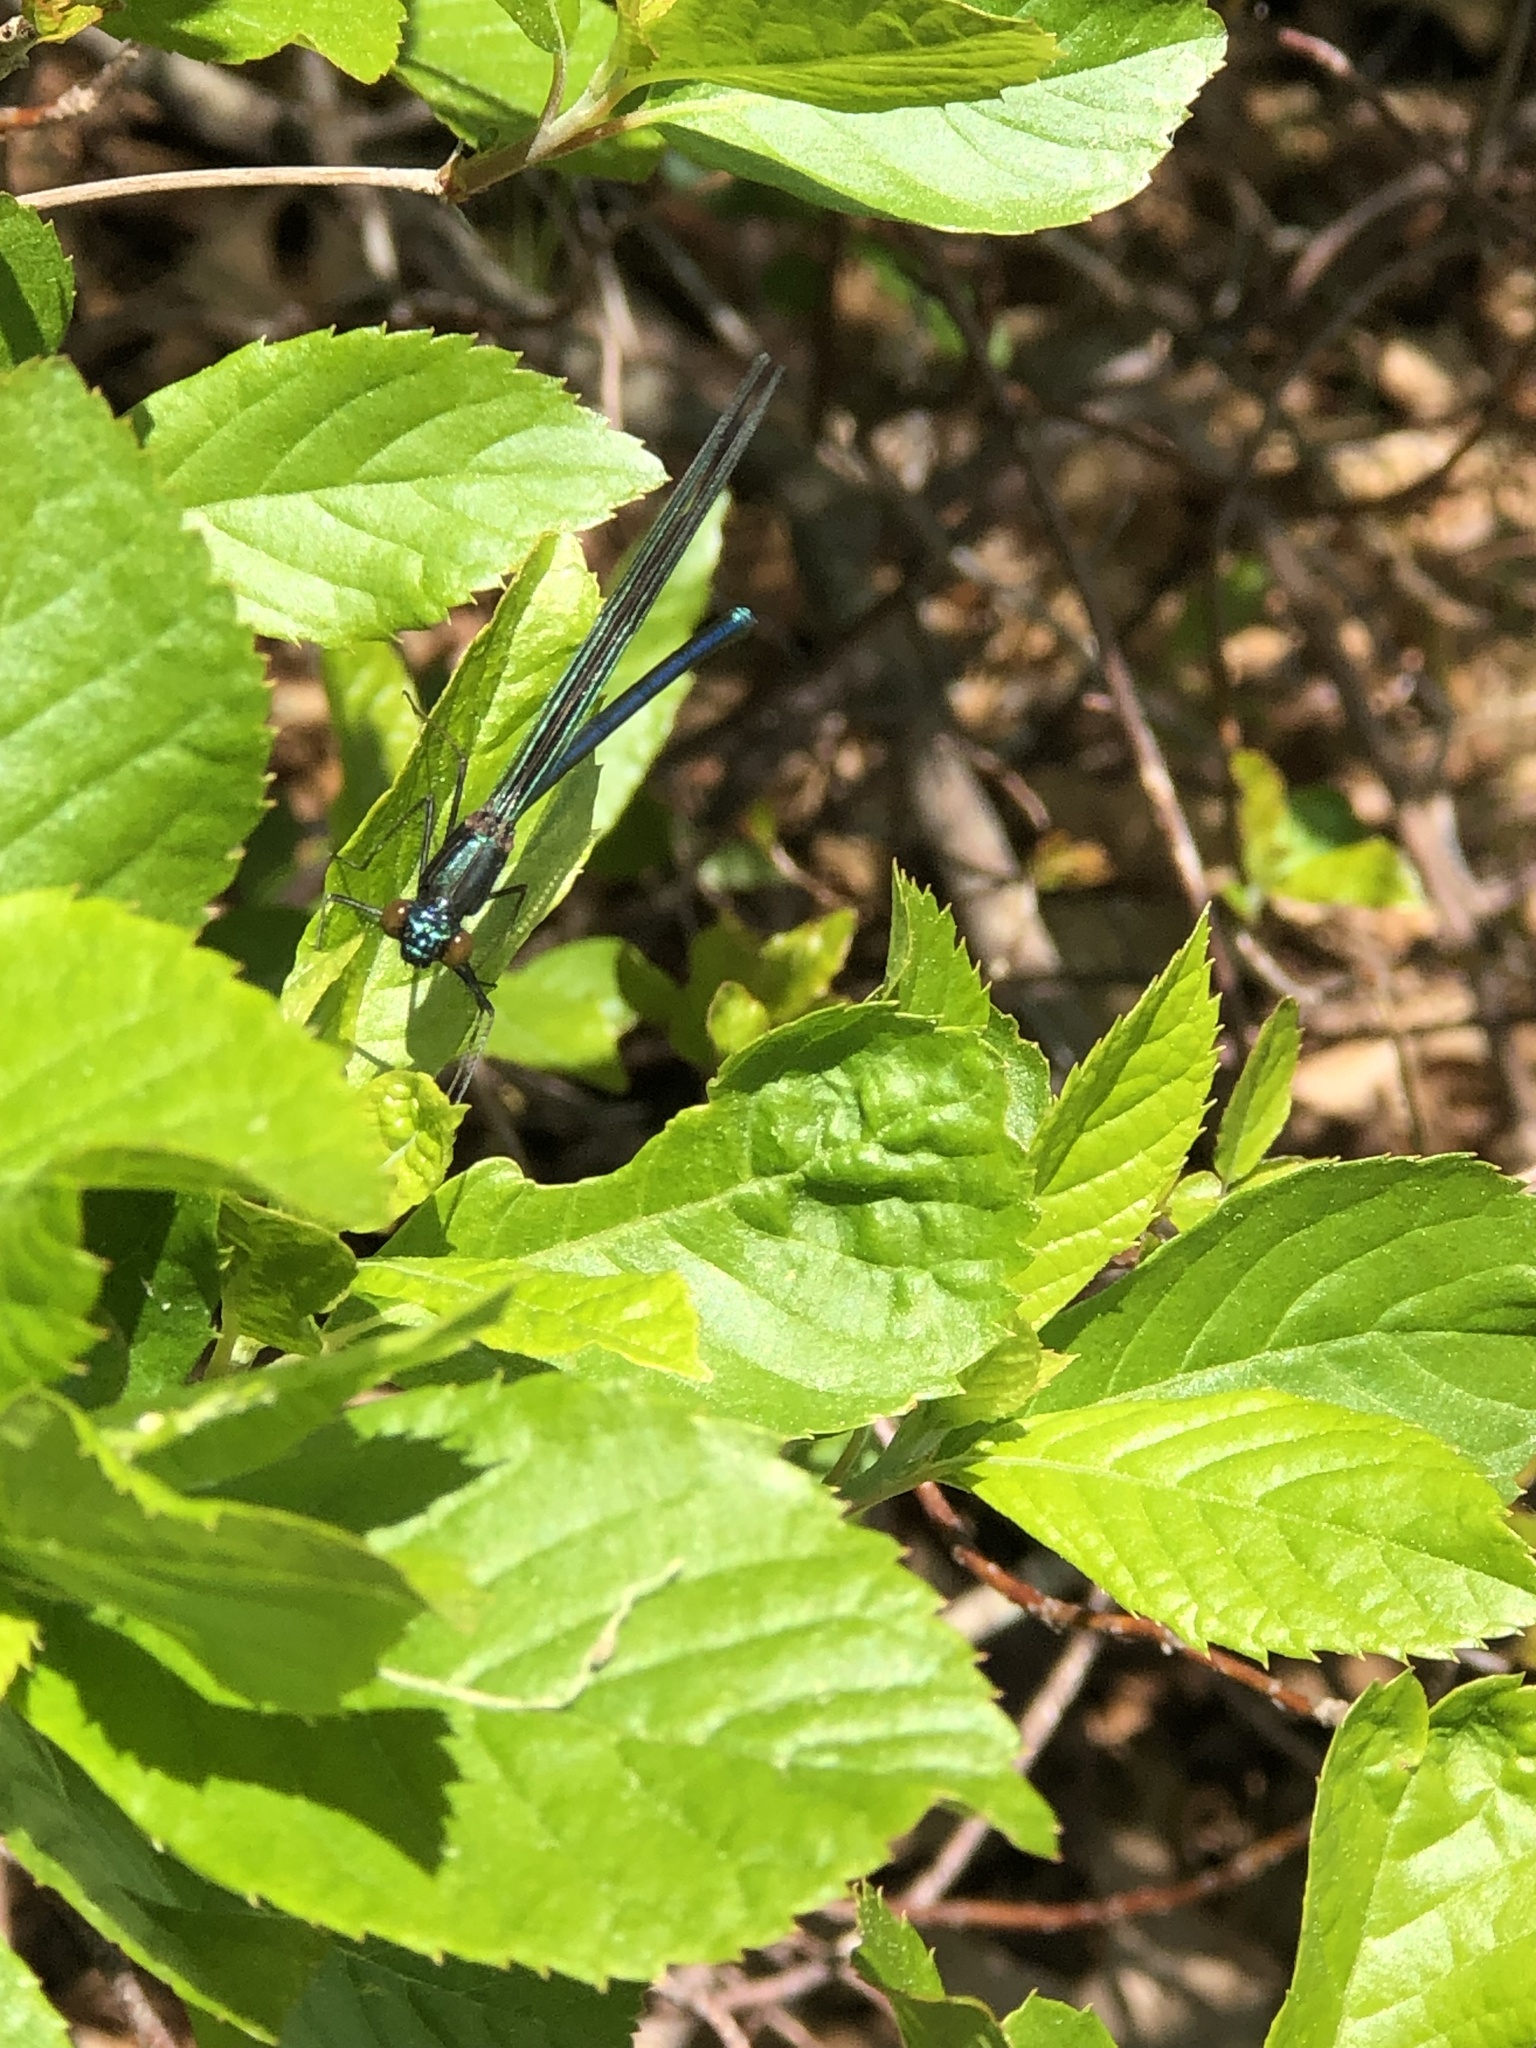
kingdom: Animalia
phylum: Arthropoda
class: Insecta
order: Odonata
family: Calopterygidae
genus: Calopteryx
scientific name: Calopteryx maculata
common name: Ebony jewelwing
